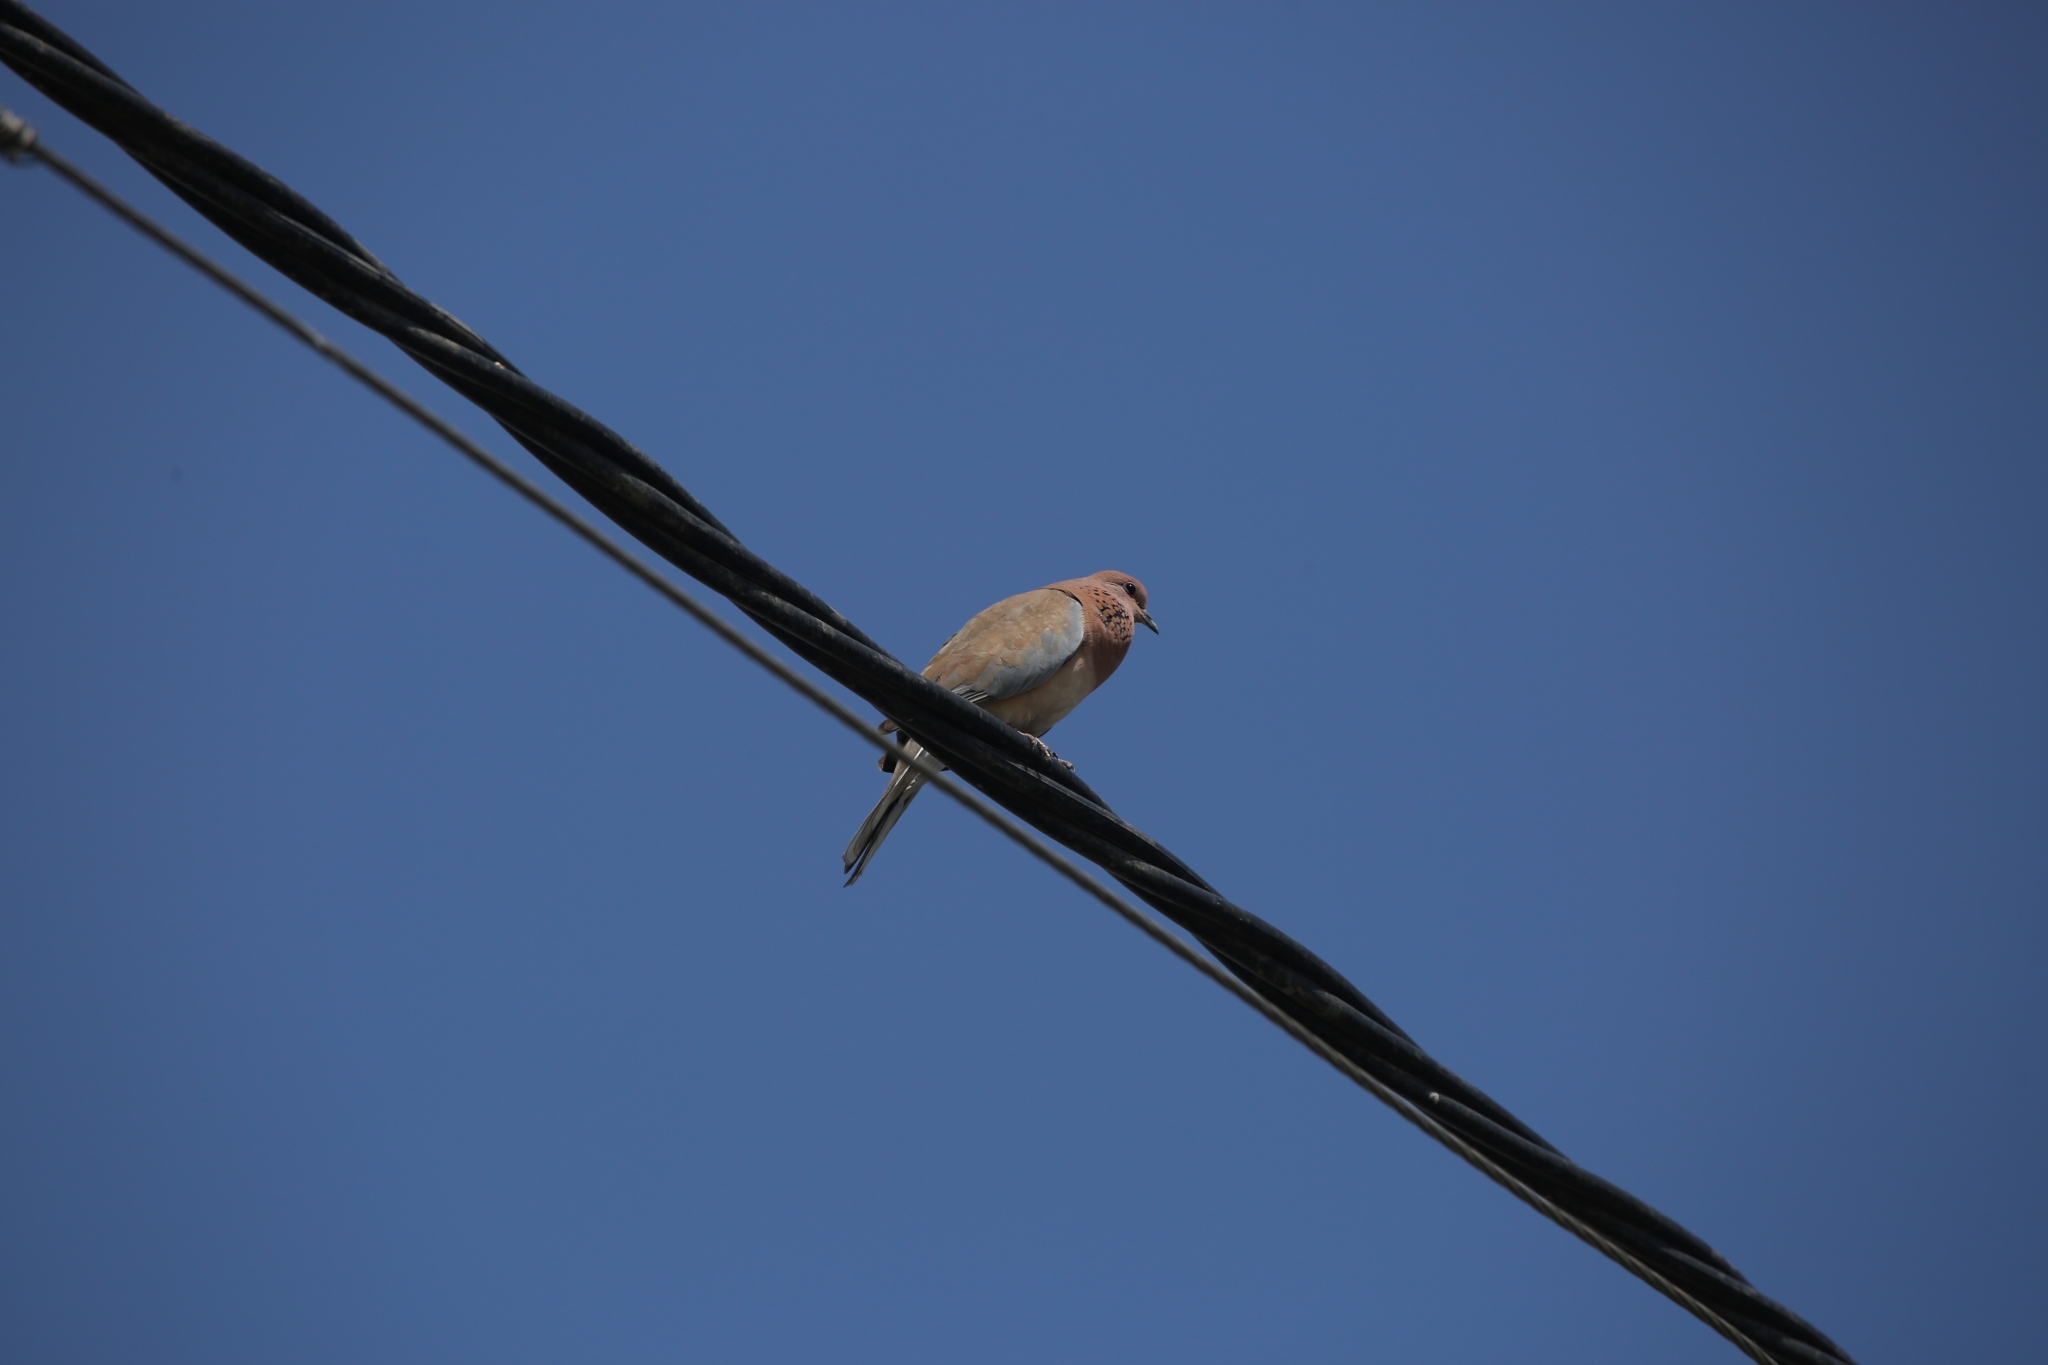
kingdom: Animalia
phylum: Chordata
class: Aves
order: Columbiformes
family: Columbidae
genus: Spilopelia
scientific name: Spilopelia senegalensis
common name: Laughing dove
